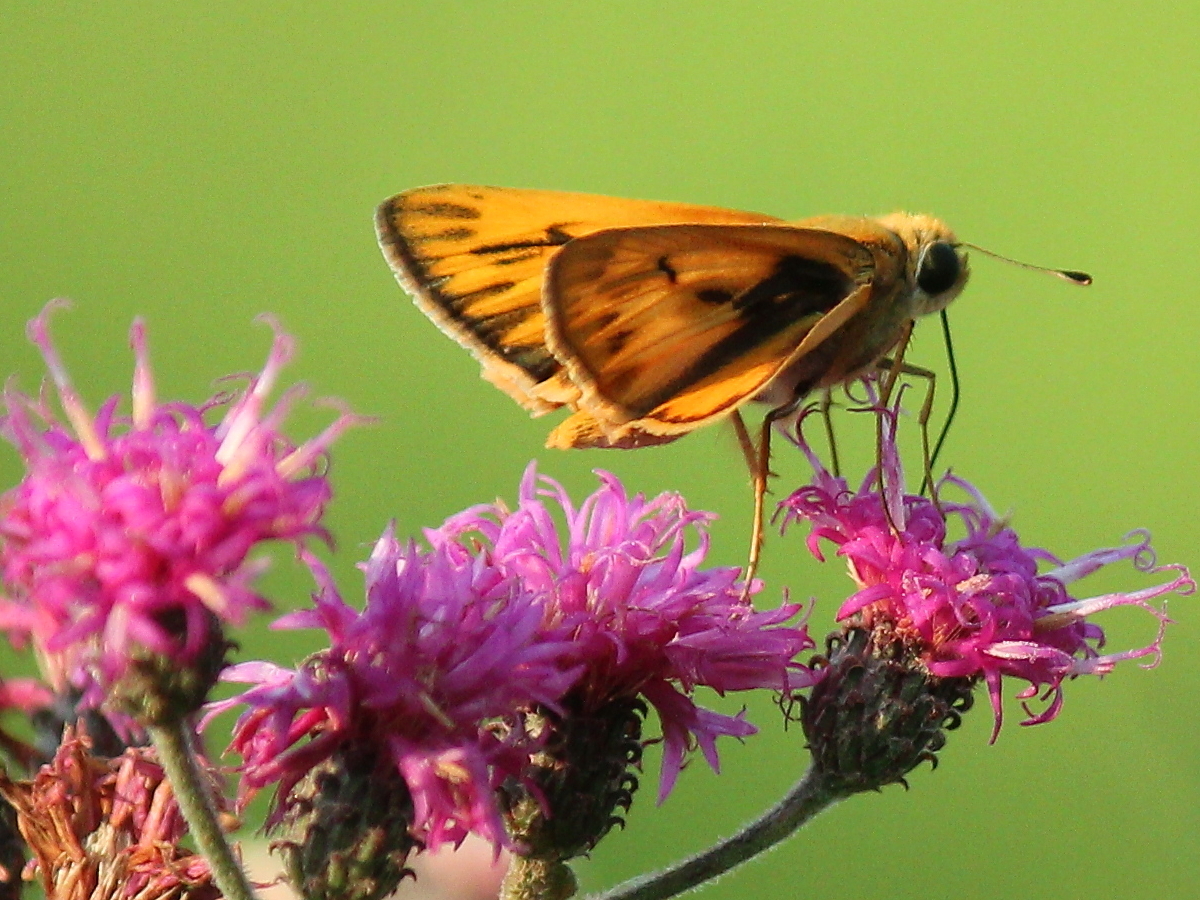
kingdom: Animalia
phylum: Arthropoda
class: Insecta
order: Lepidoptera
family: Hesperiidae
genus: Hylephila
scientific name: Hylephila phyleus
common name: Fiery skipper
